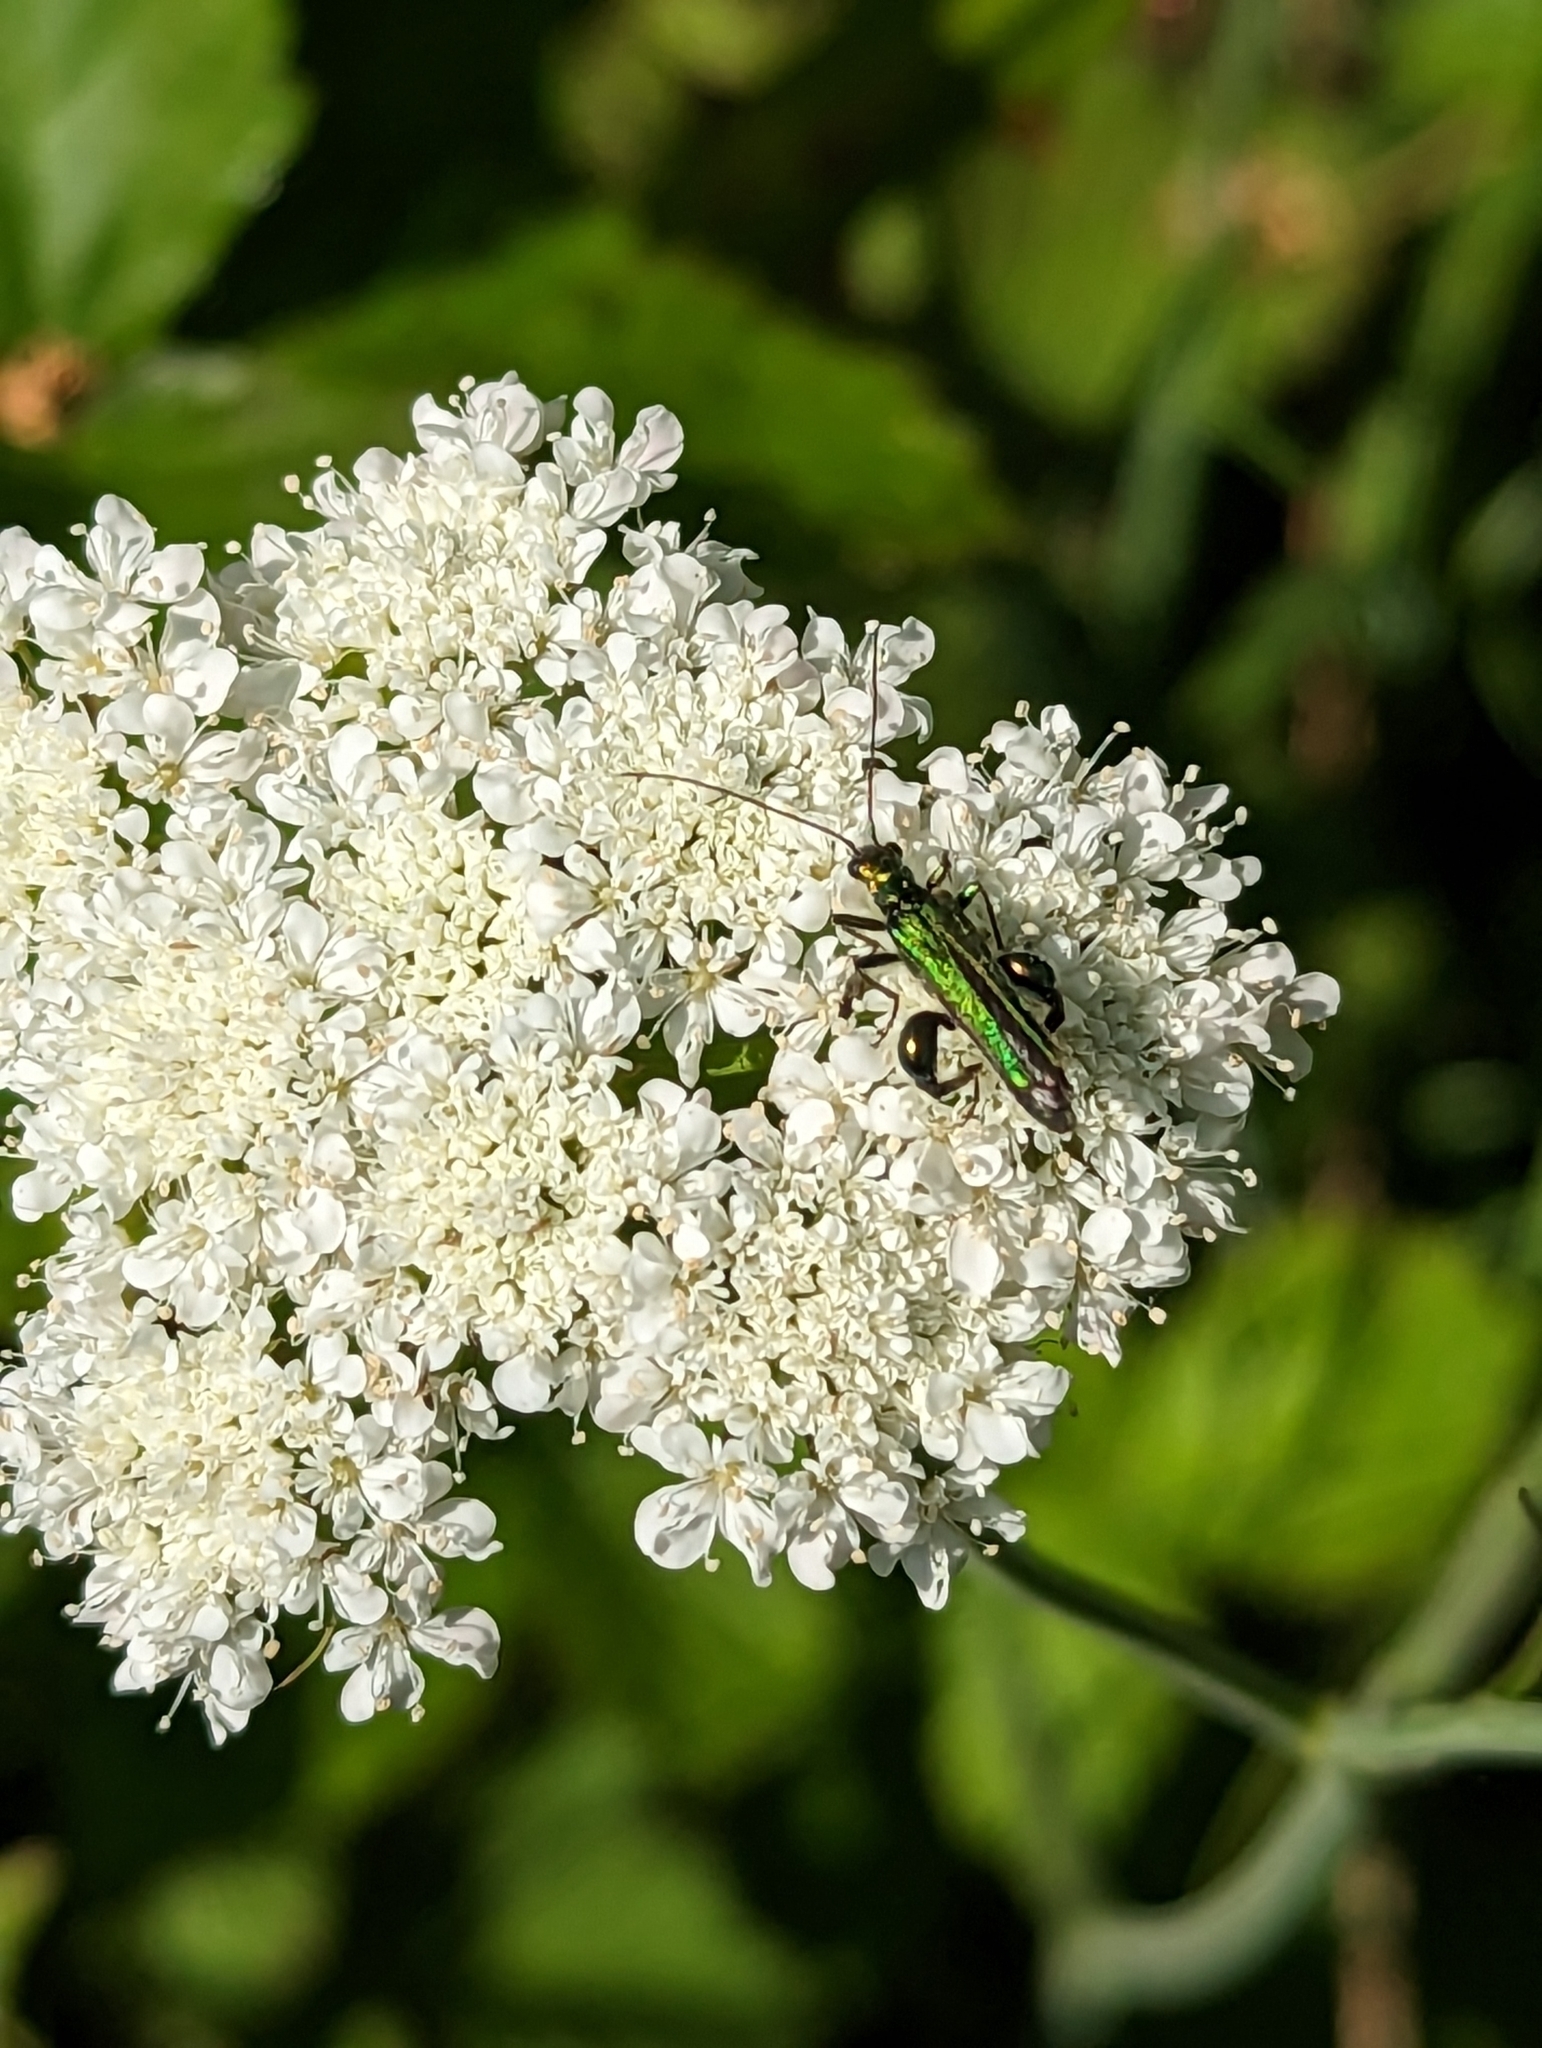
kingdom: Animalia
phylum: Arthropoda
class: Insecta
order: Coleoptera
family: Oedemeridae
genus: Oedemera
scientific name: Oedemera nobilis
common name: Swollen-thighed beetle
